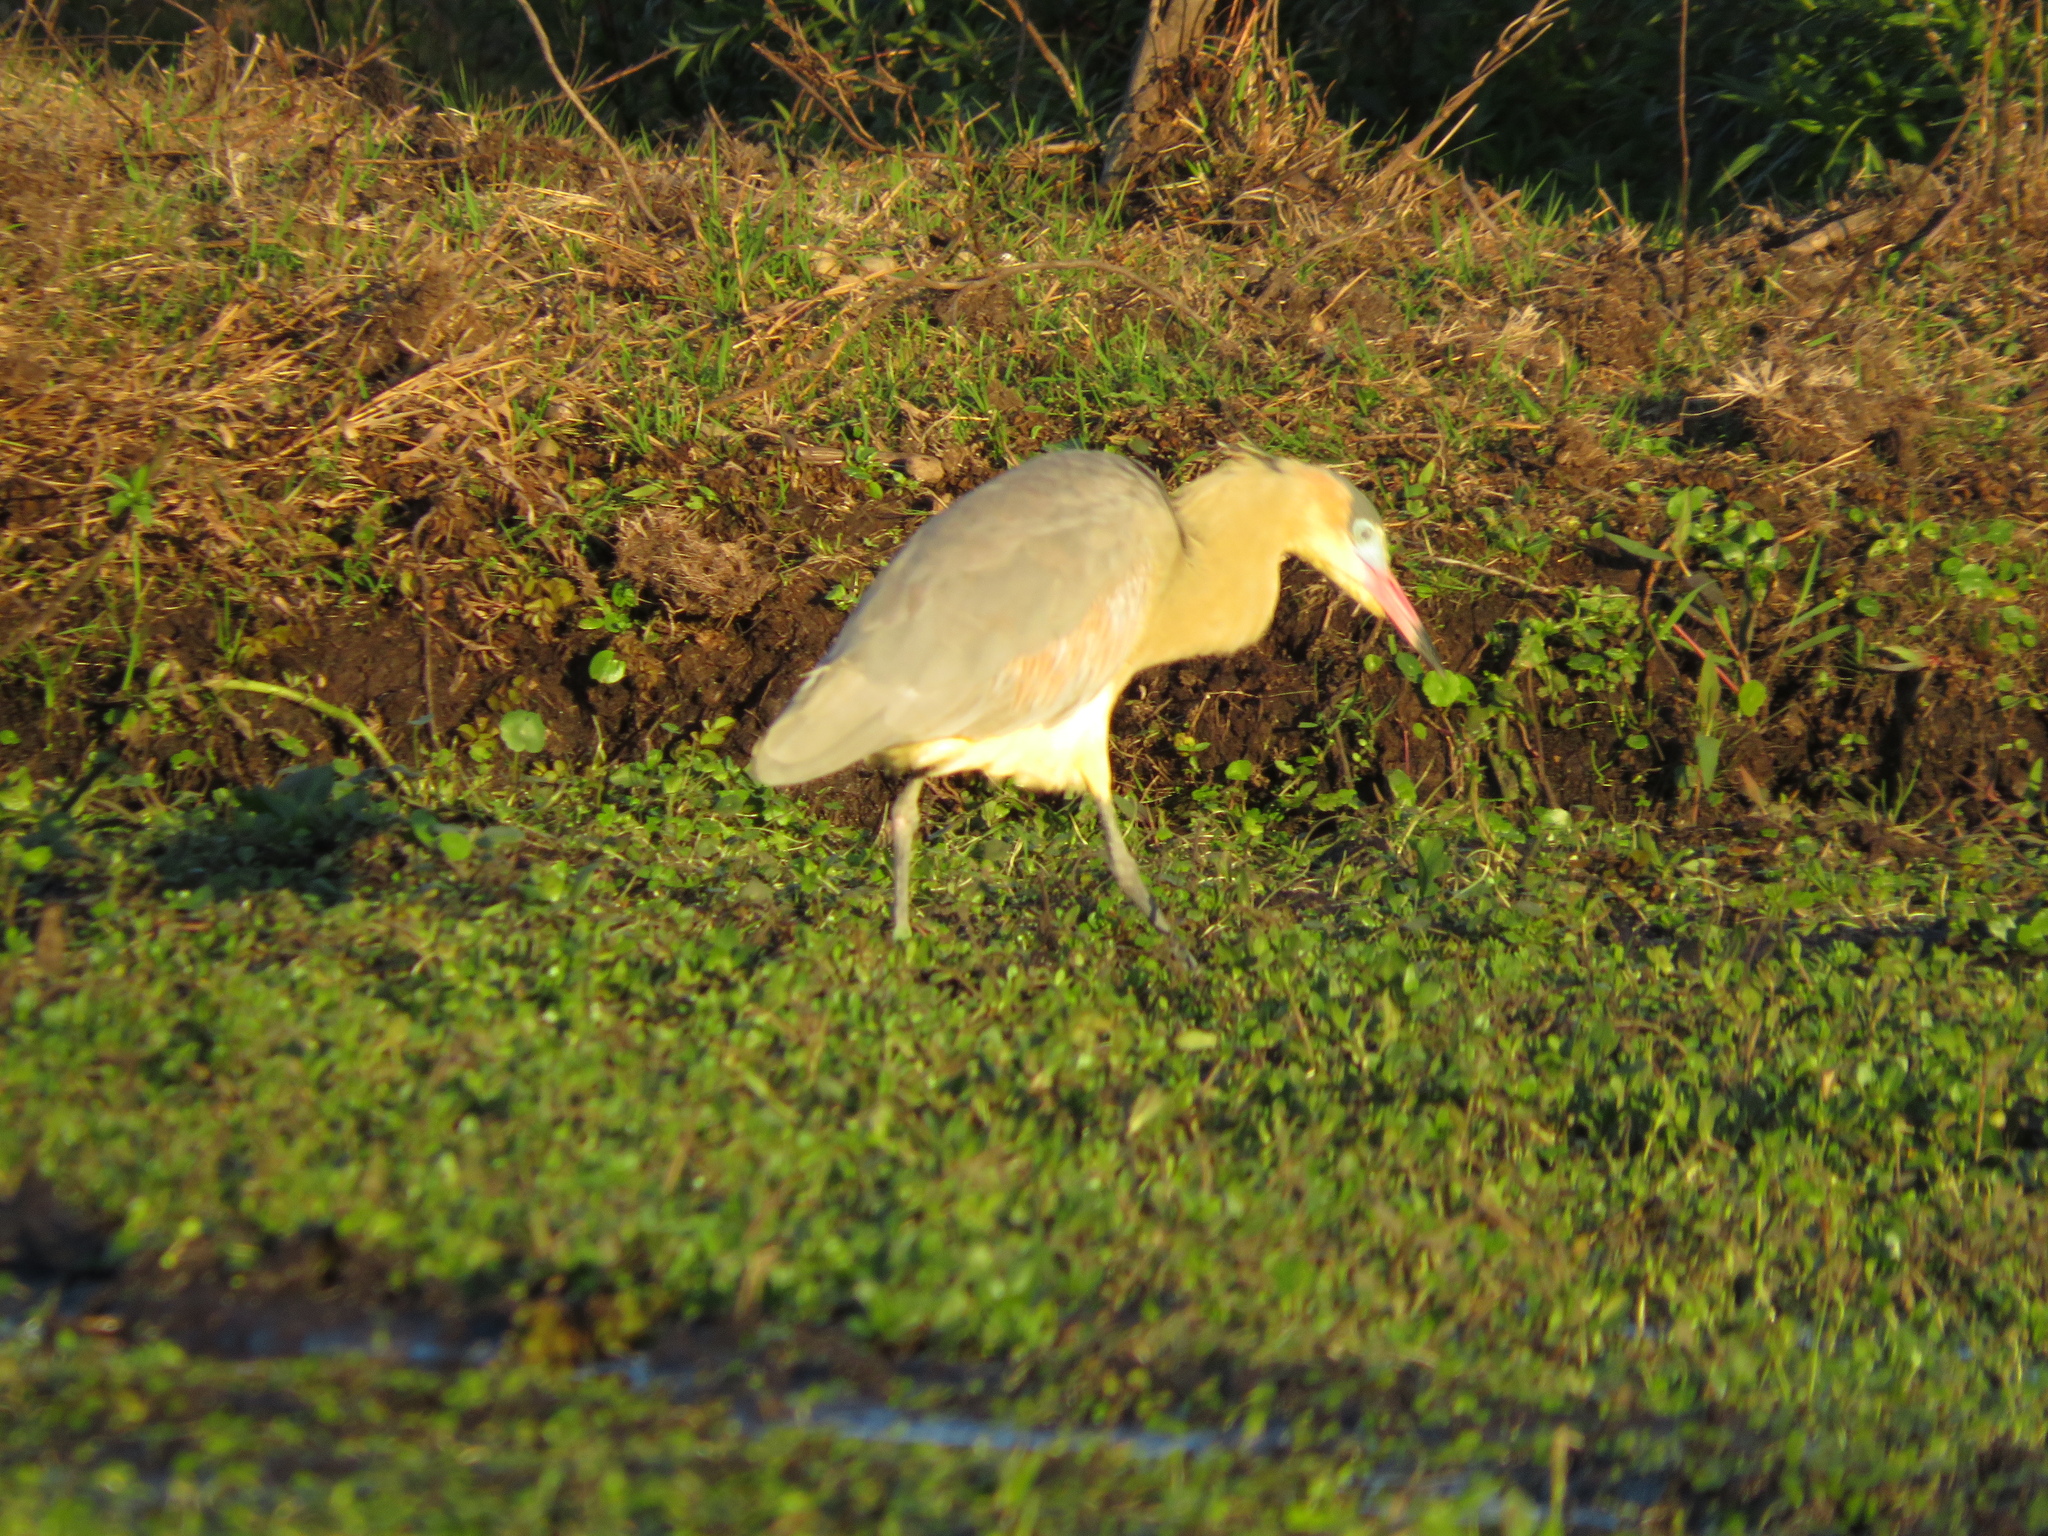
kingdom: Animalia
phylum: Chordata
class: Aves
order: Pelecaniformes
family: Ardeidae
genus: Syrigma
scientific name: Syrigma sibilatrix
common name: Whistling heron
